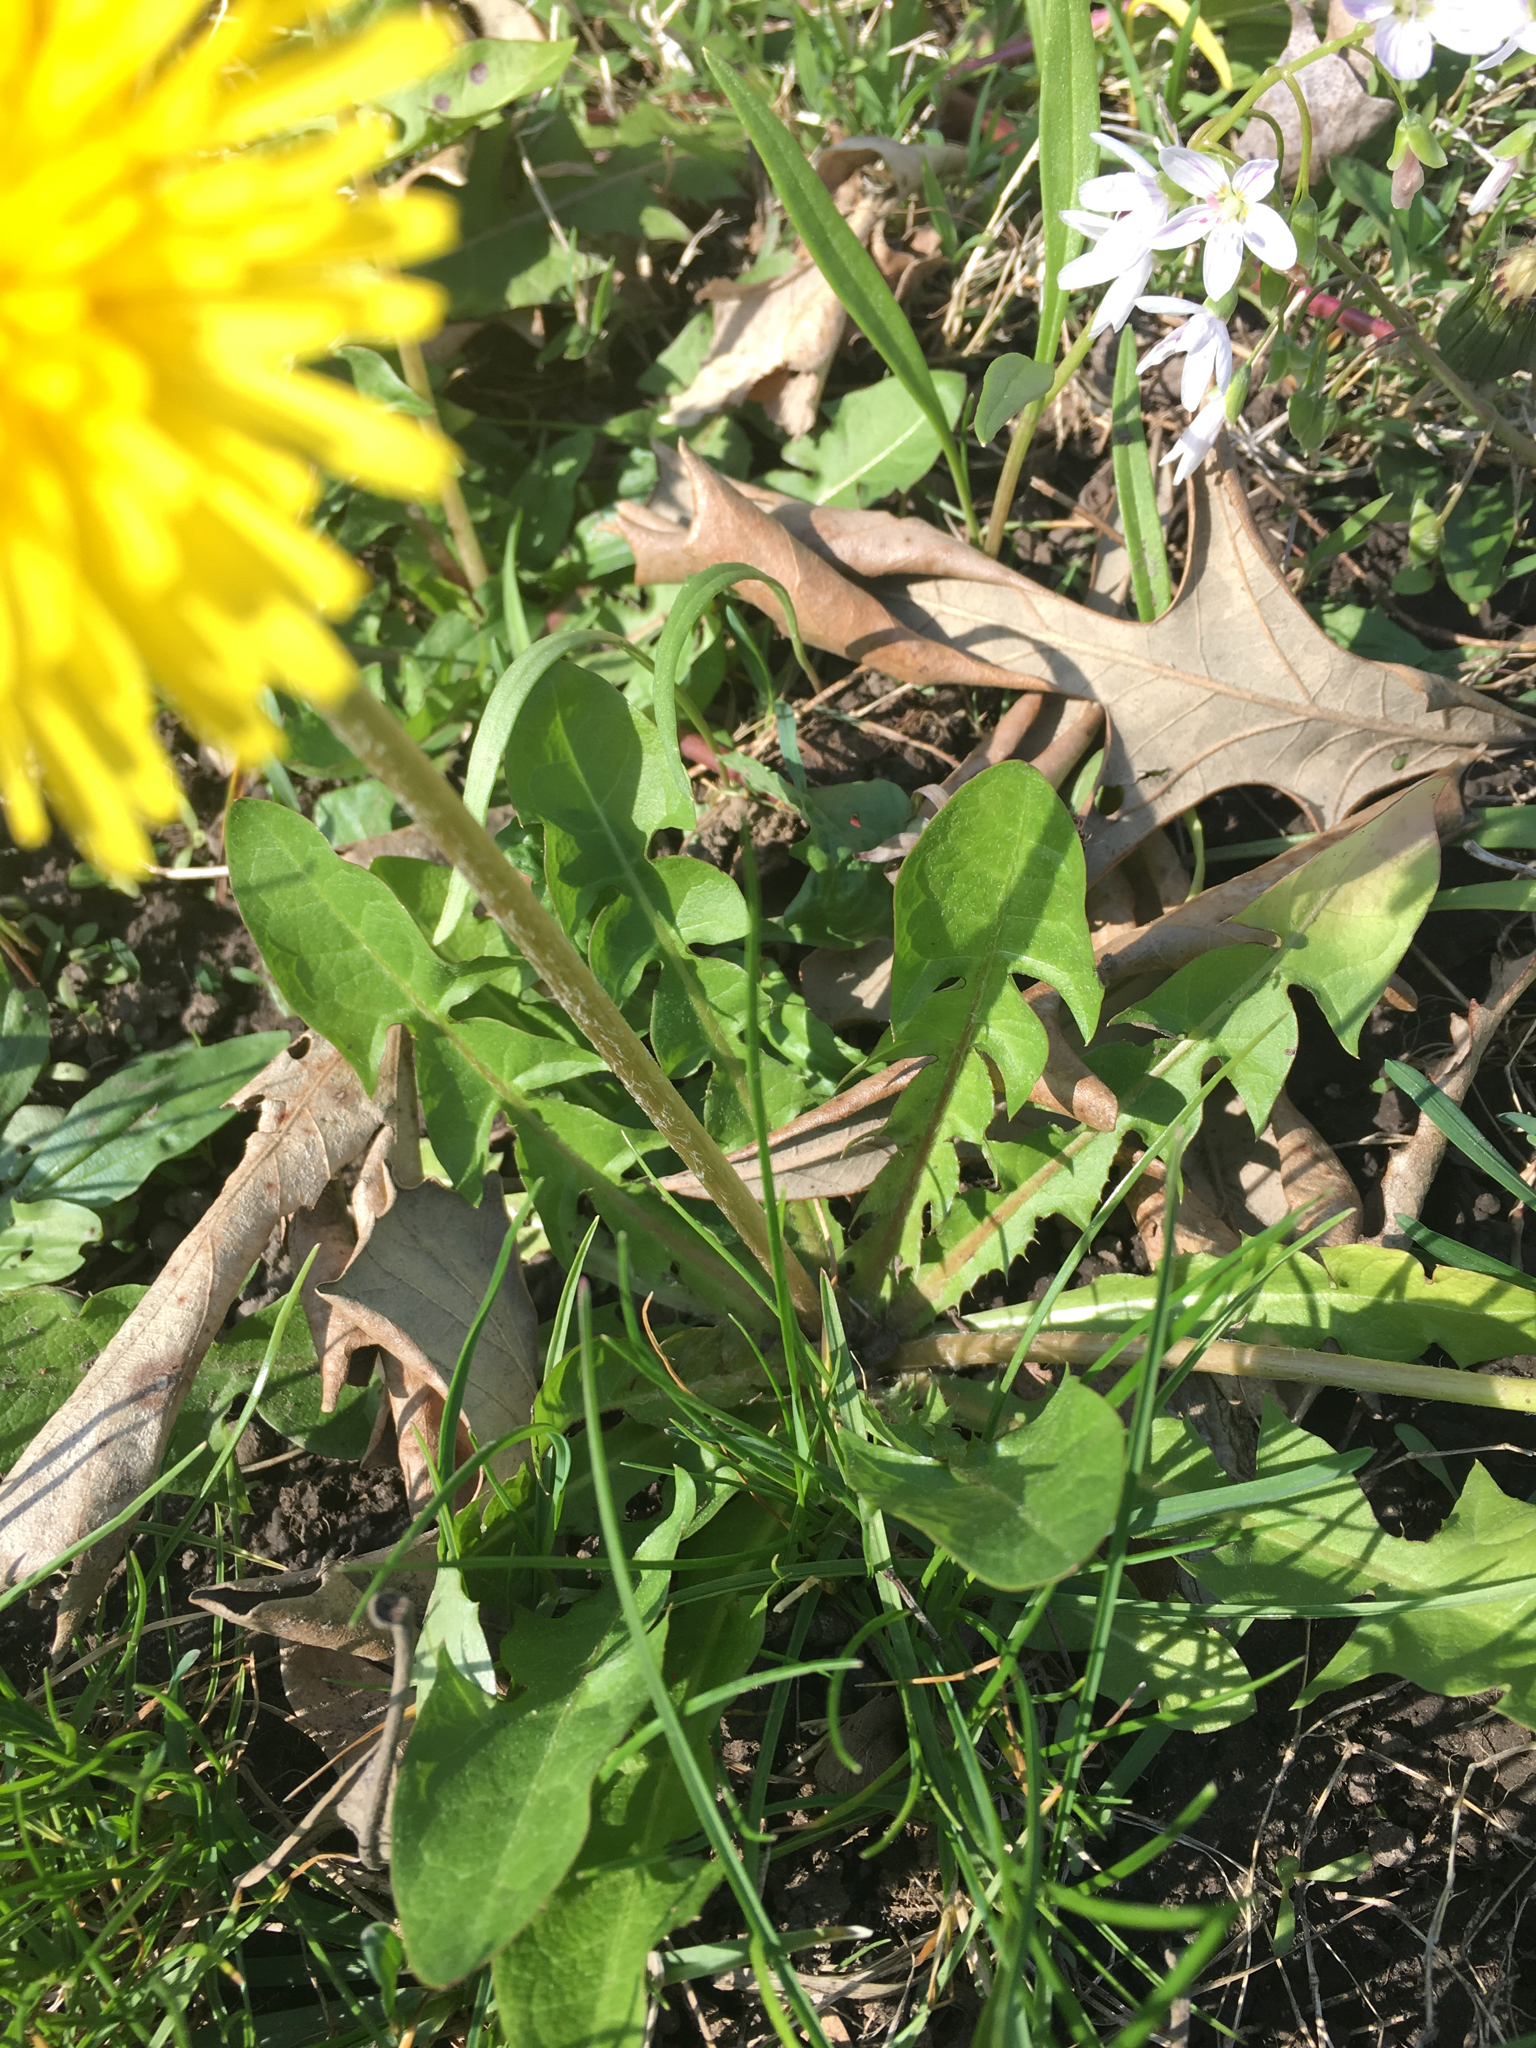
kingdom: Plantae
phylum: Tracheophyta
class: Magnoliopsida
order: Asterales
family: Asteraceae
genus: Taraxacum
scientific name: Taraxacum officinale
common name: Common dandelion
